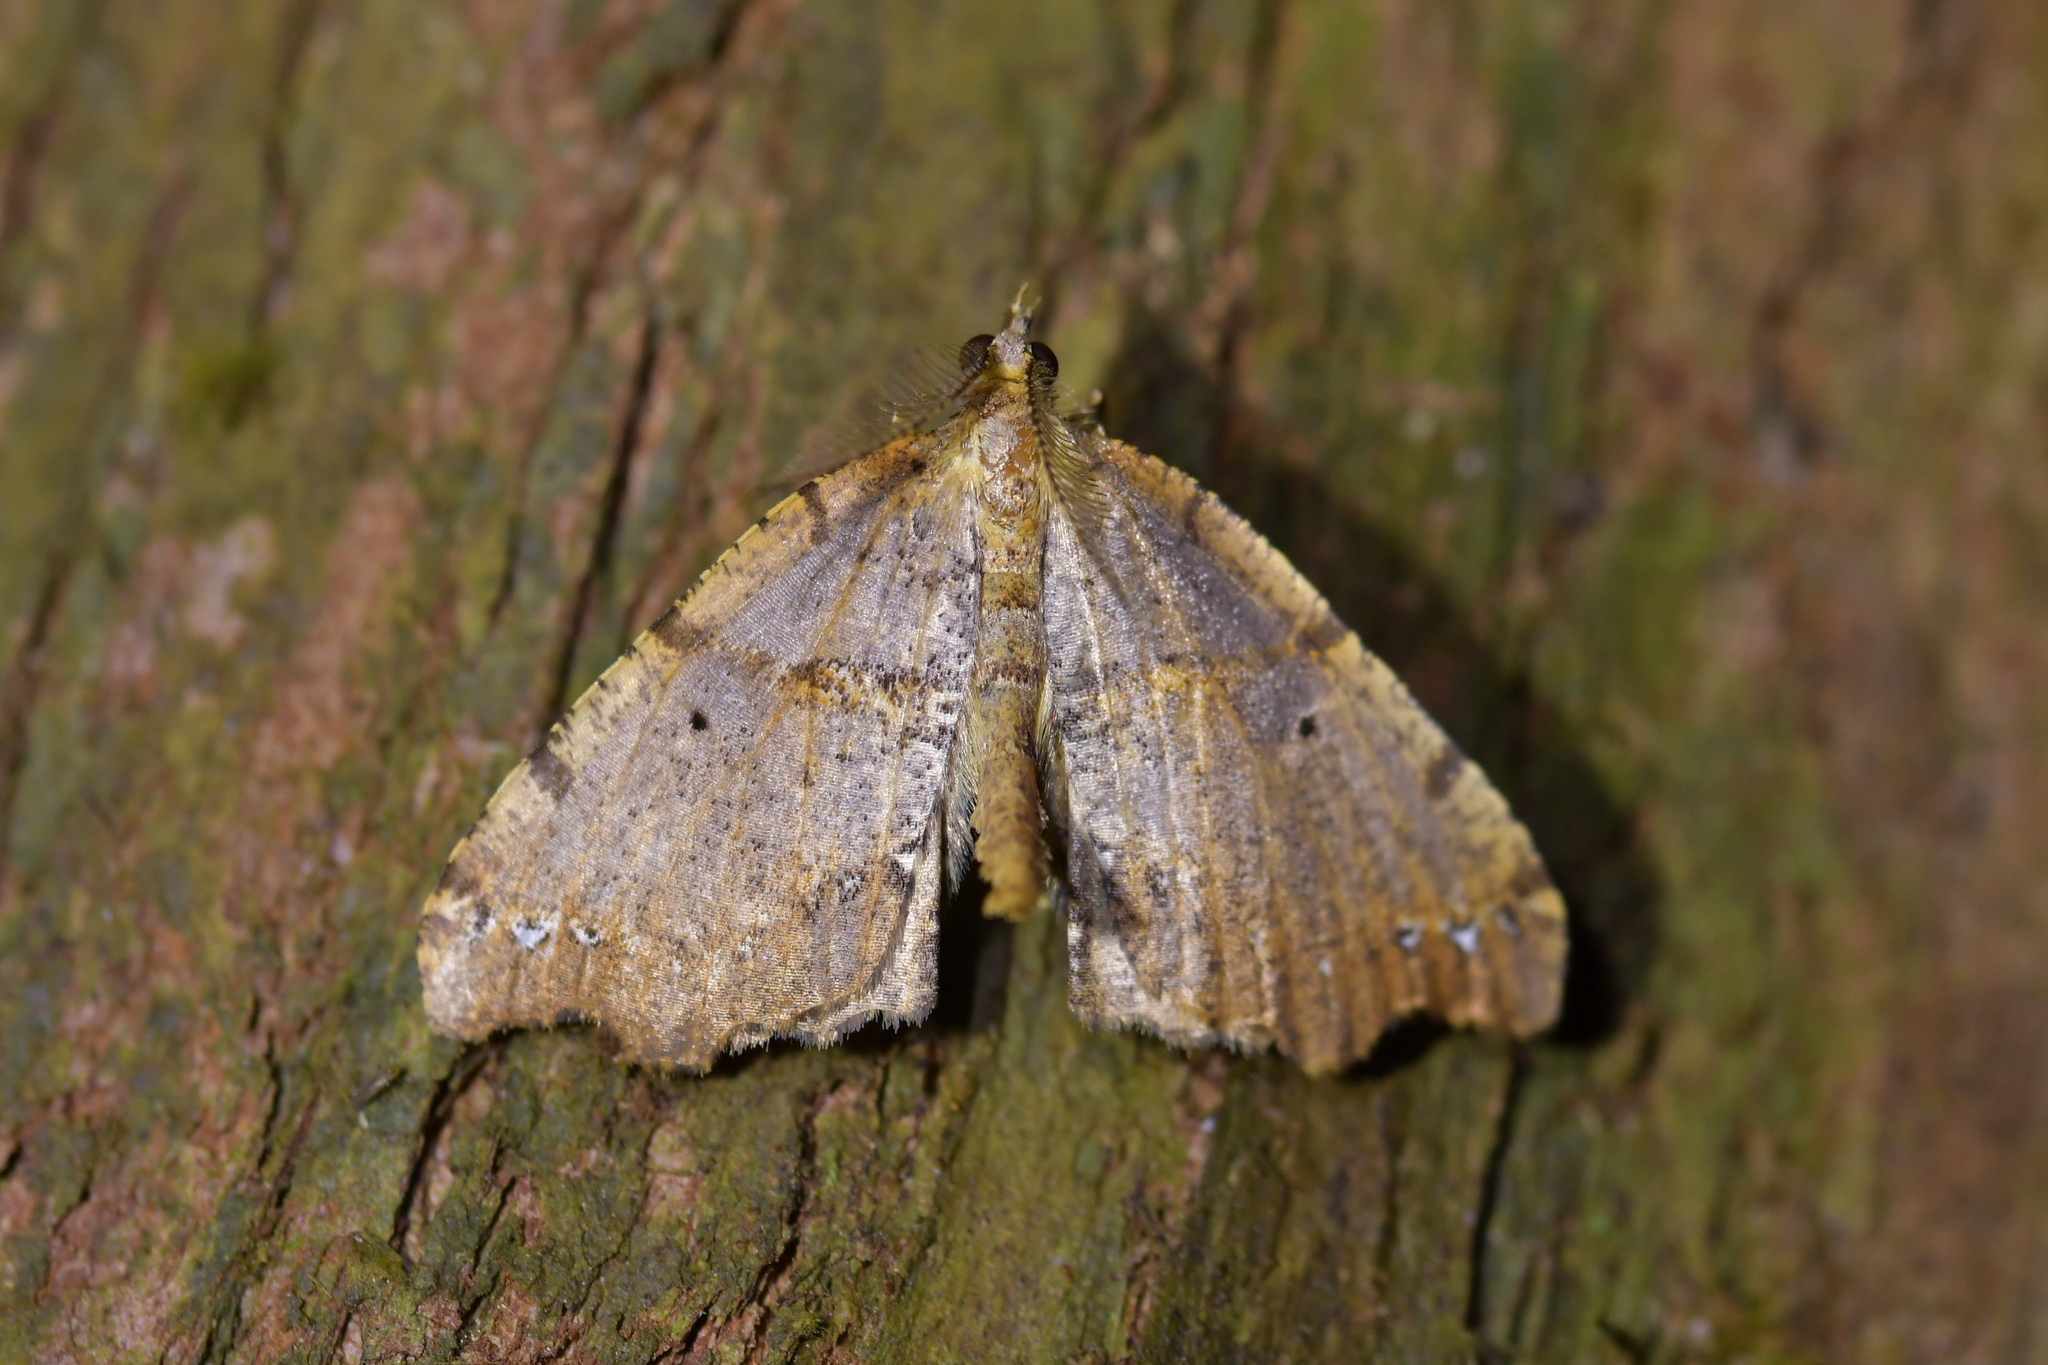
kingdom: Animalia
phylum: Arthropoda
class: Insecta
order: Lepidoptera
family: Geometridae
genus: Chalastra
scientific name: Chalastra pellurgata
